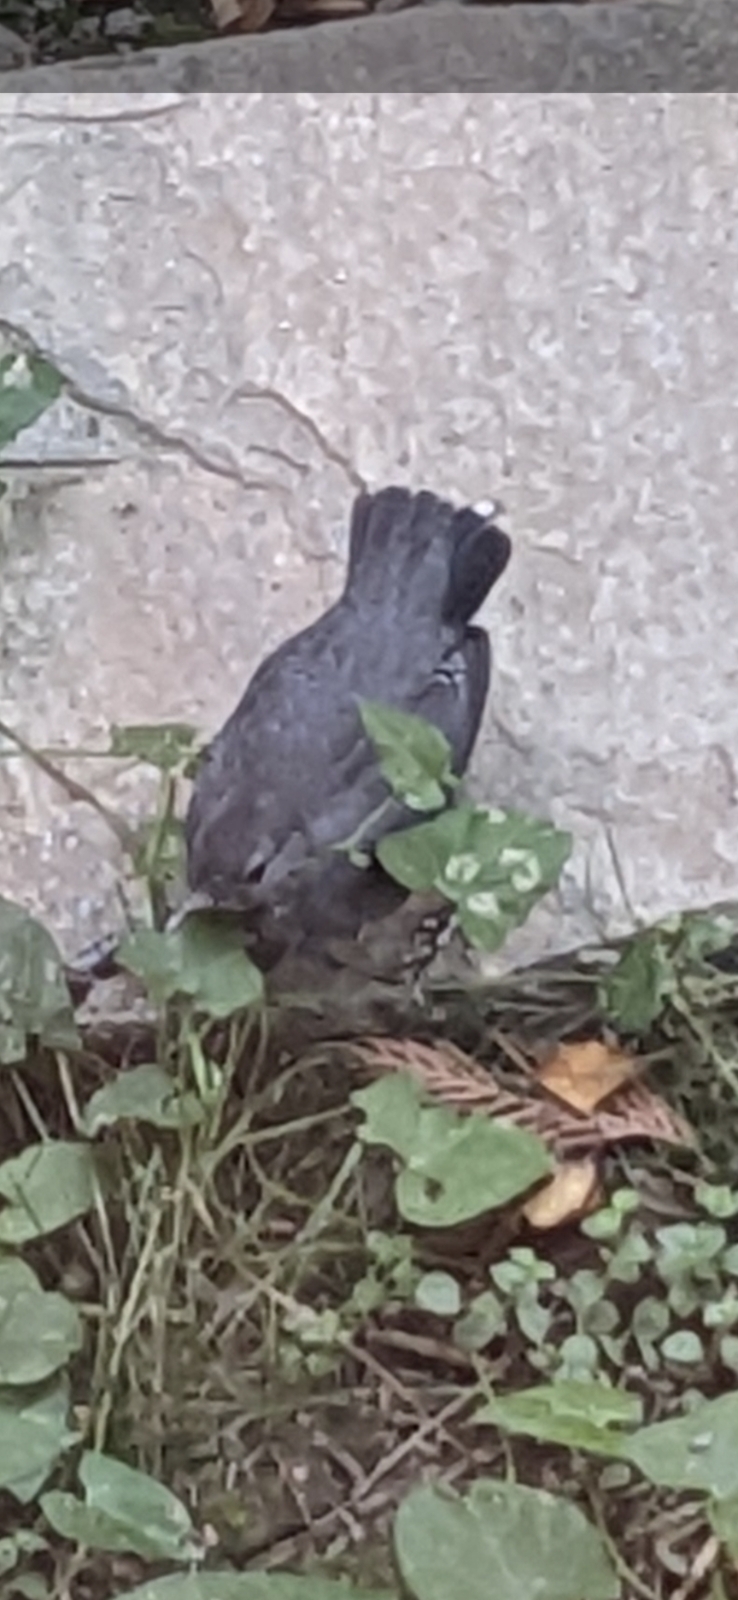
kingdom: Animalia
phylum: Chordata
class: Aves
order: Passeriformes
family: Cinclidae
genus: Cinclus
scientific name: Cinclus mexicanus
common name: American dipper
